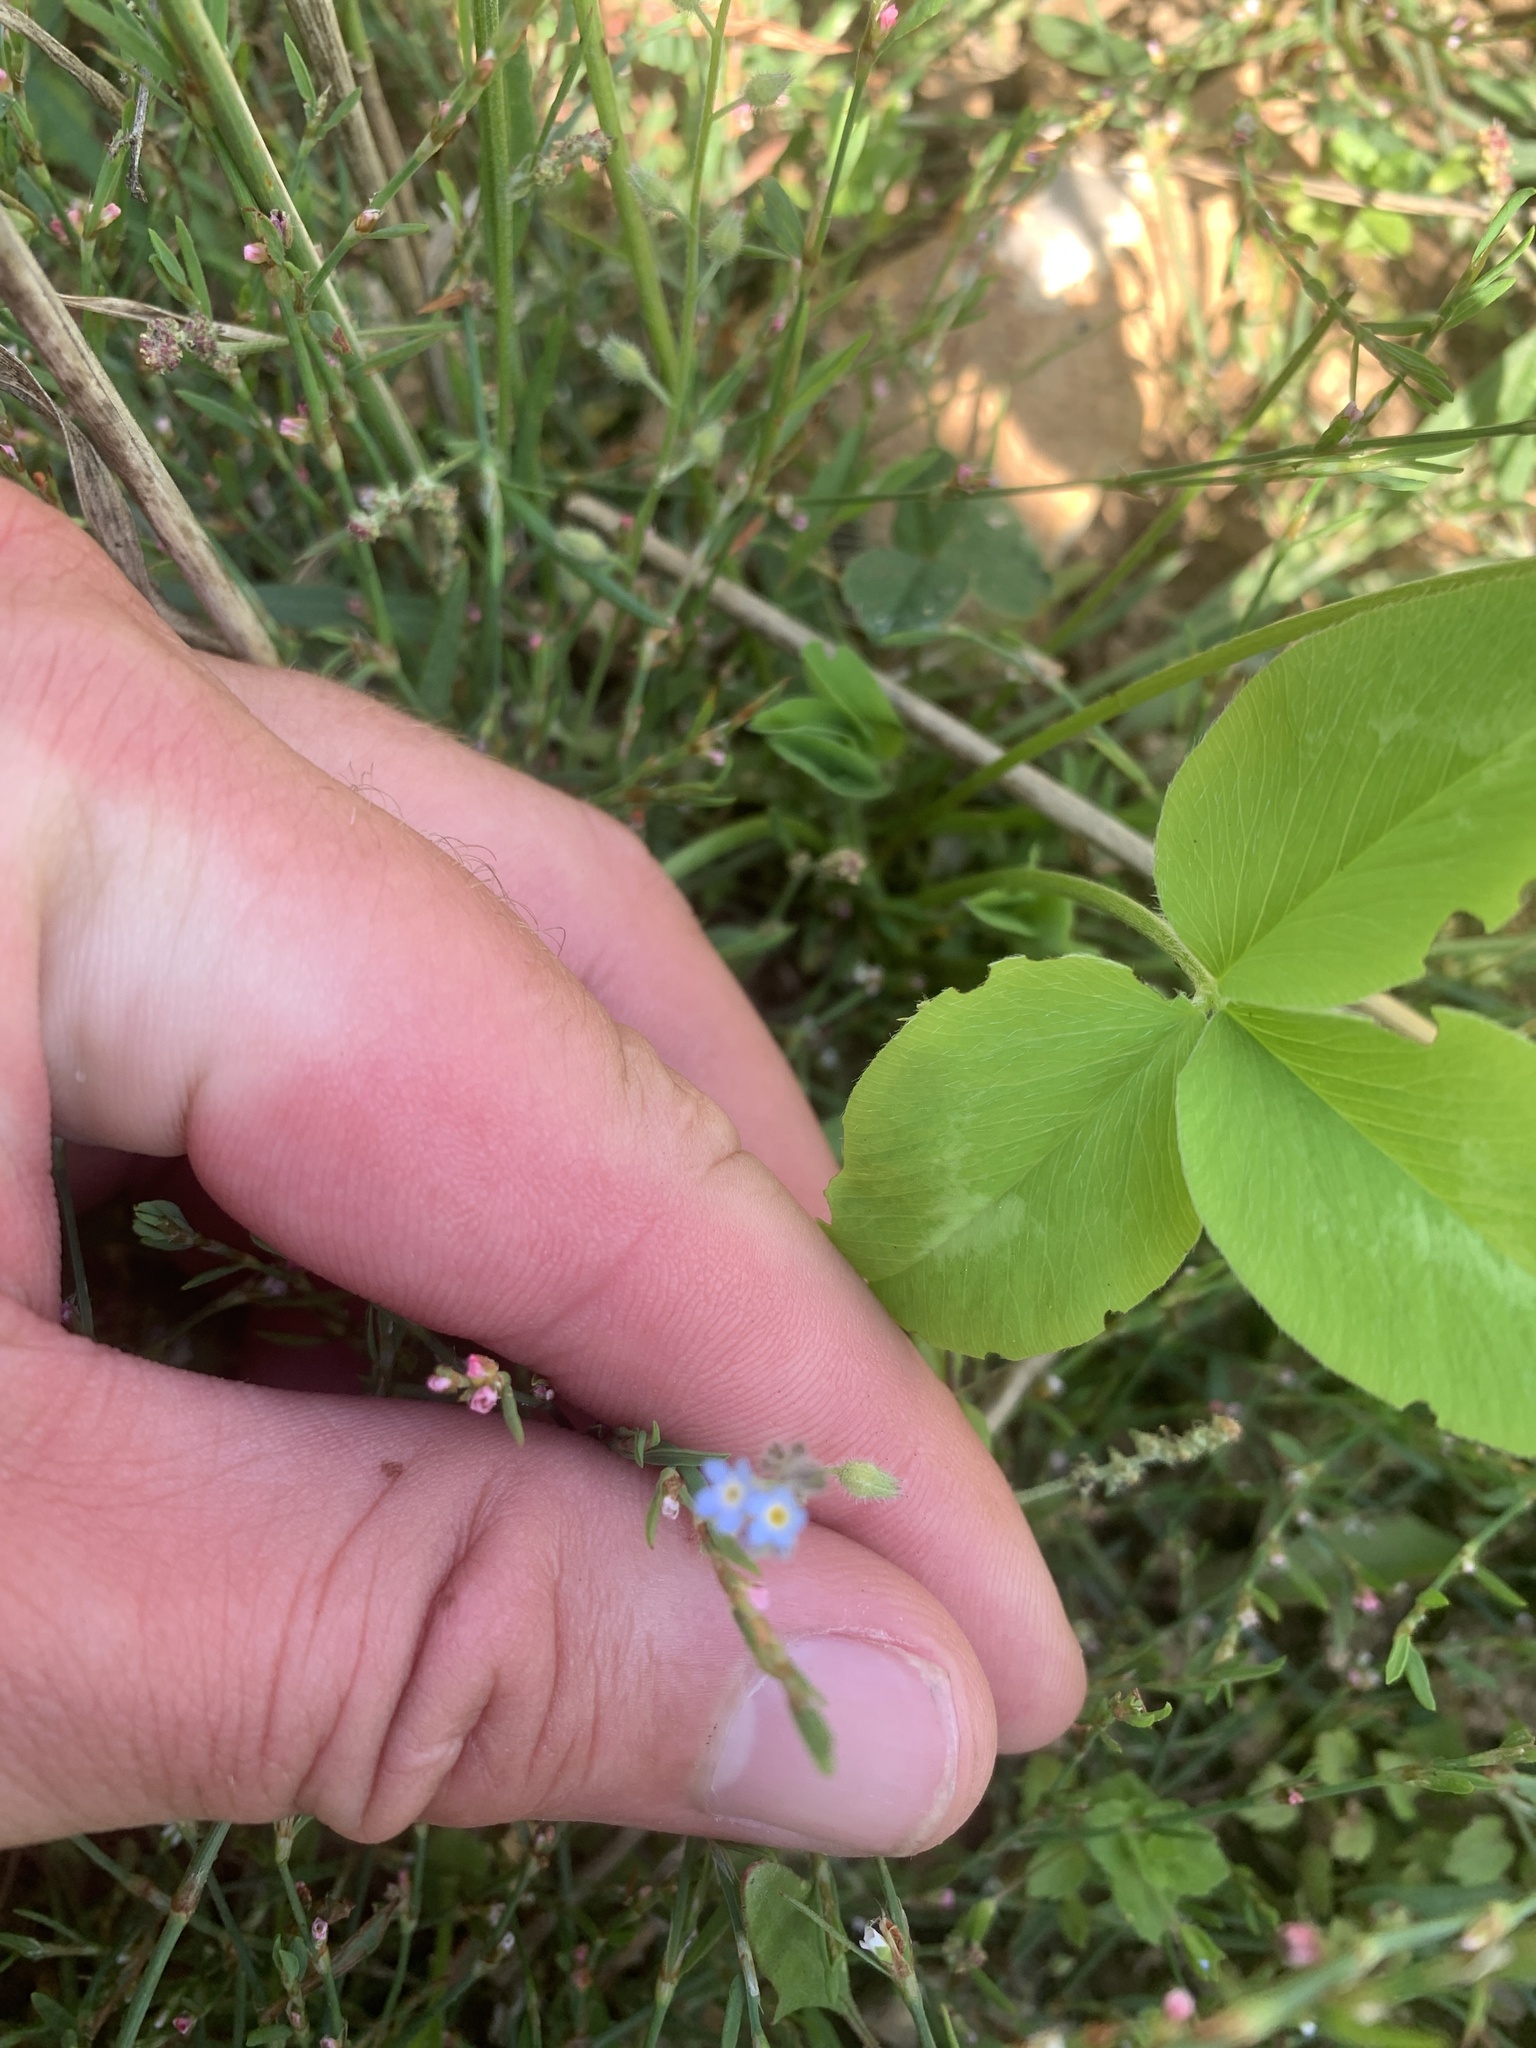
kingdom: Plantae
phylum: Tracheophyta
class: Magnoliopsida
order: Boraginales
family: Boraginaceae
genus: Myosotis
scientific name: Myosotis arvensis
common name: Field forget-me-not
